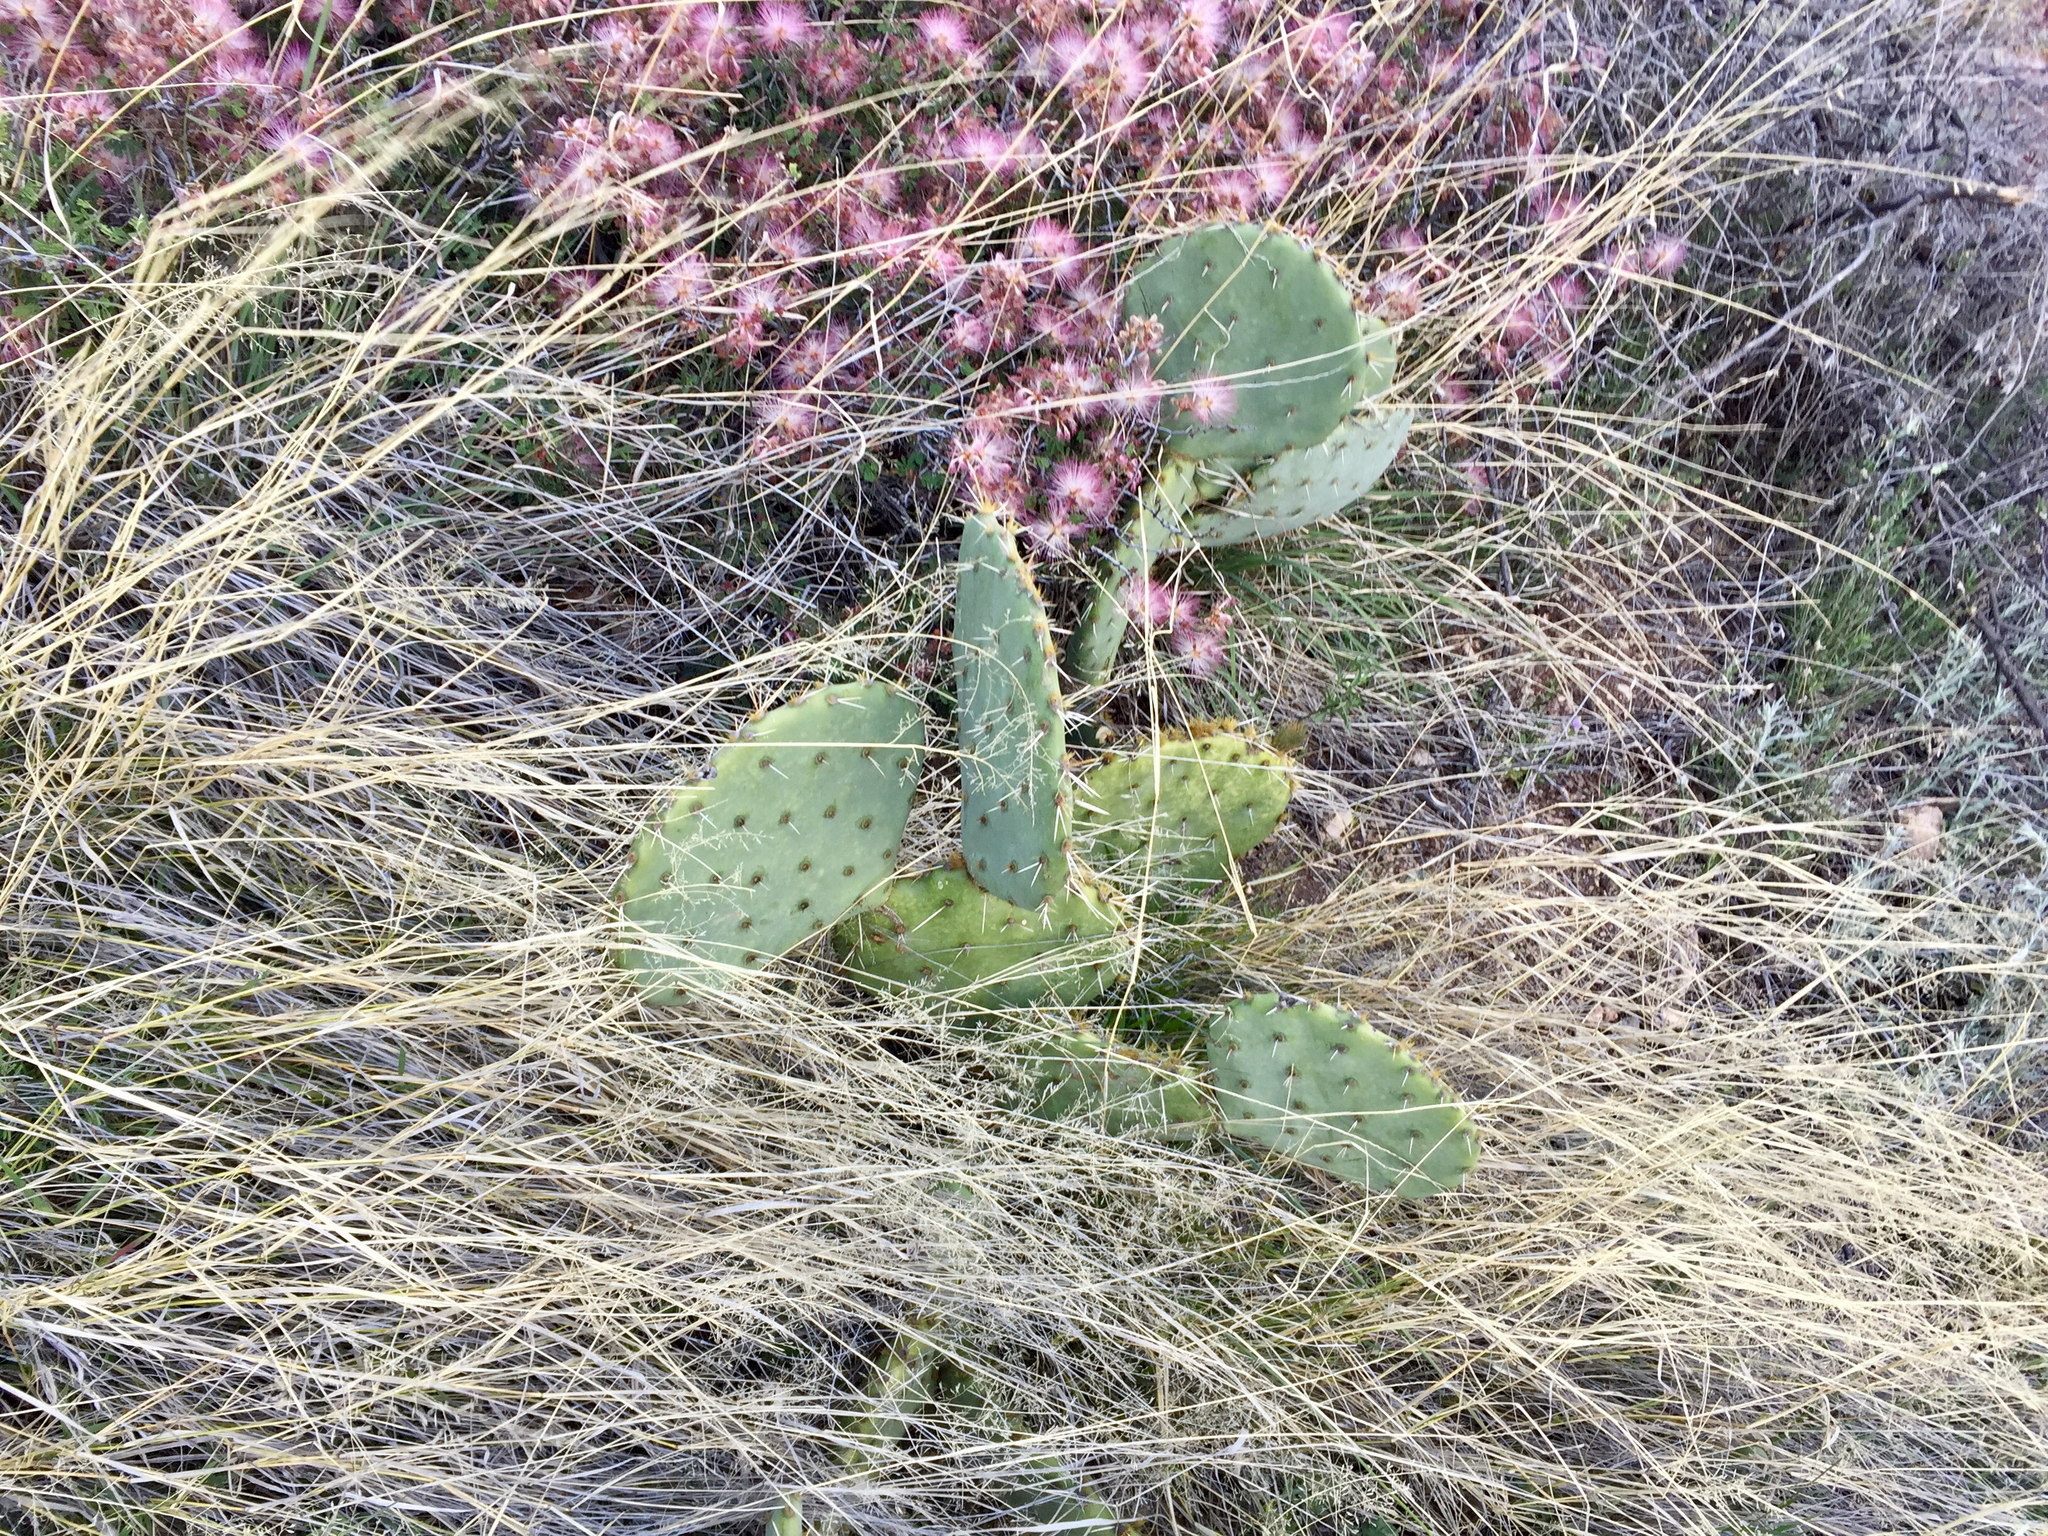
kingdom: Plantae
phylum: Tracheophyta
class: Magnoliopsida
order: Caryophyllales
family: Cactaceae
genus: Opuntia
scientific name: Opuntia engelmannii
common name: Cactus-apple
